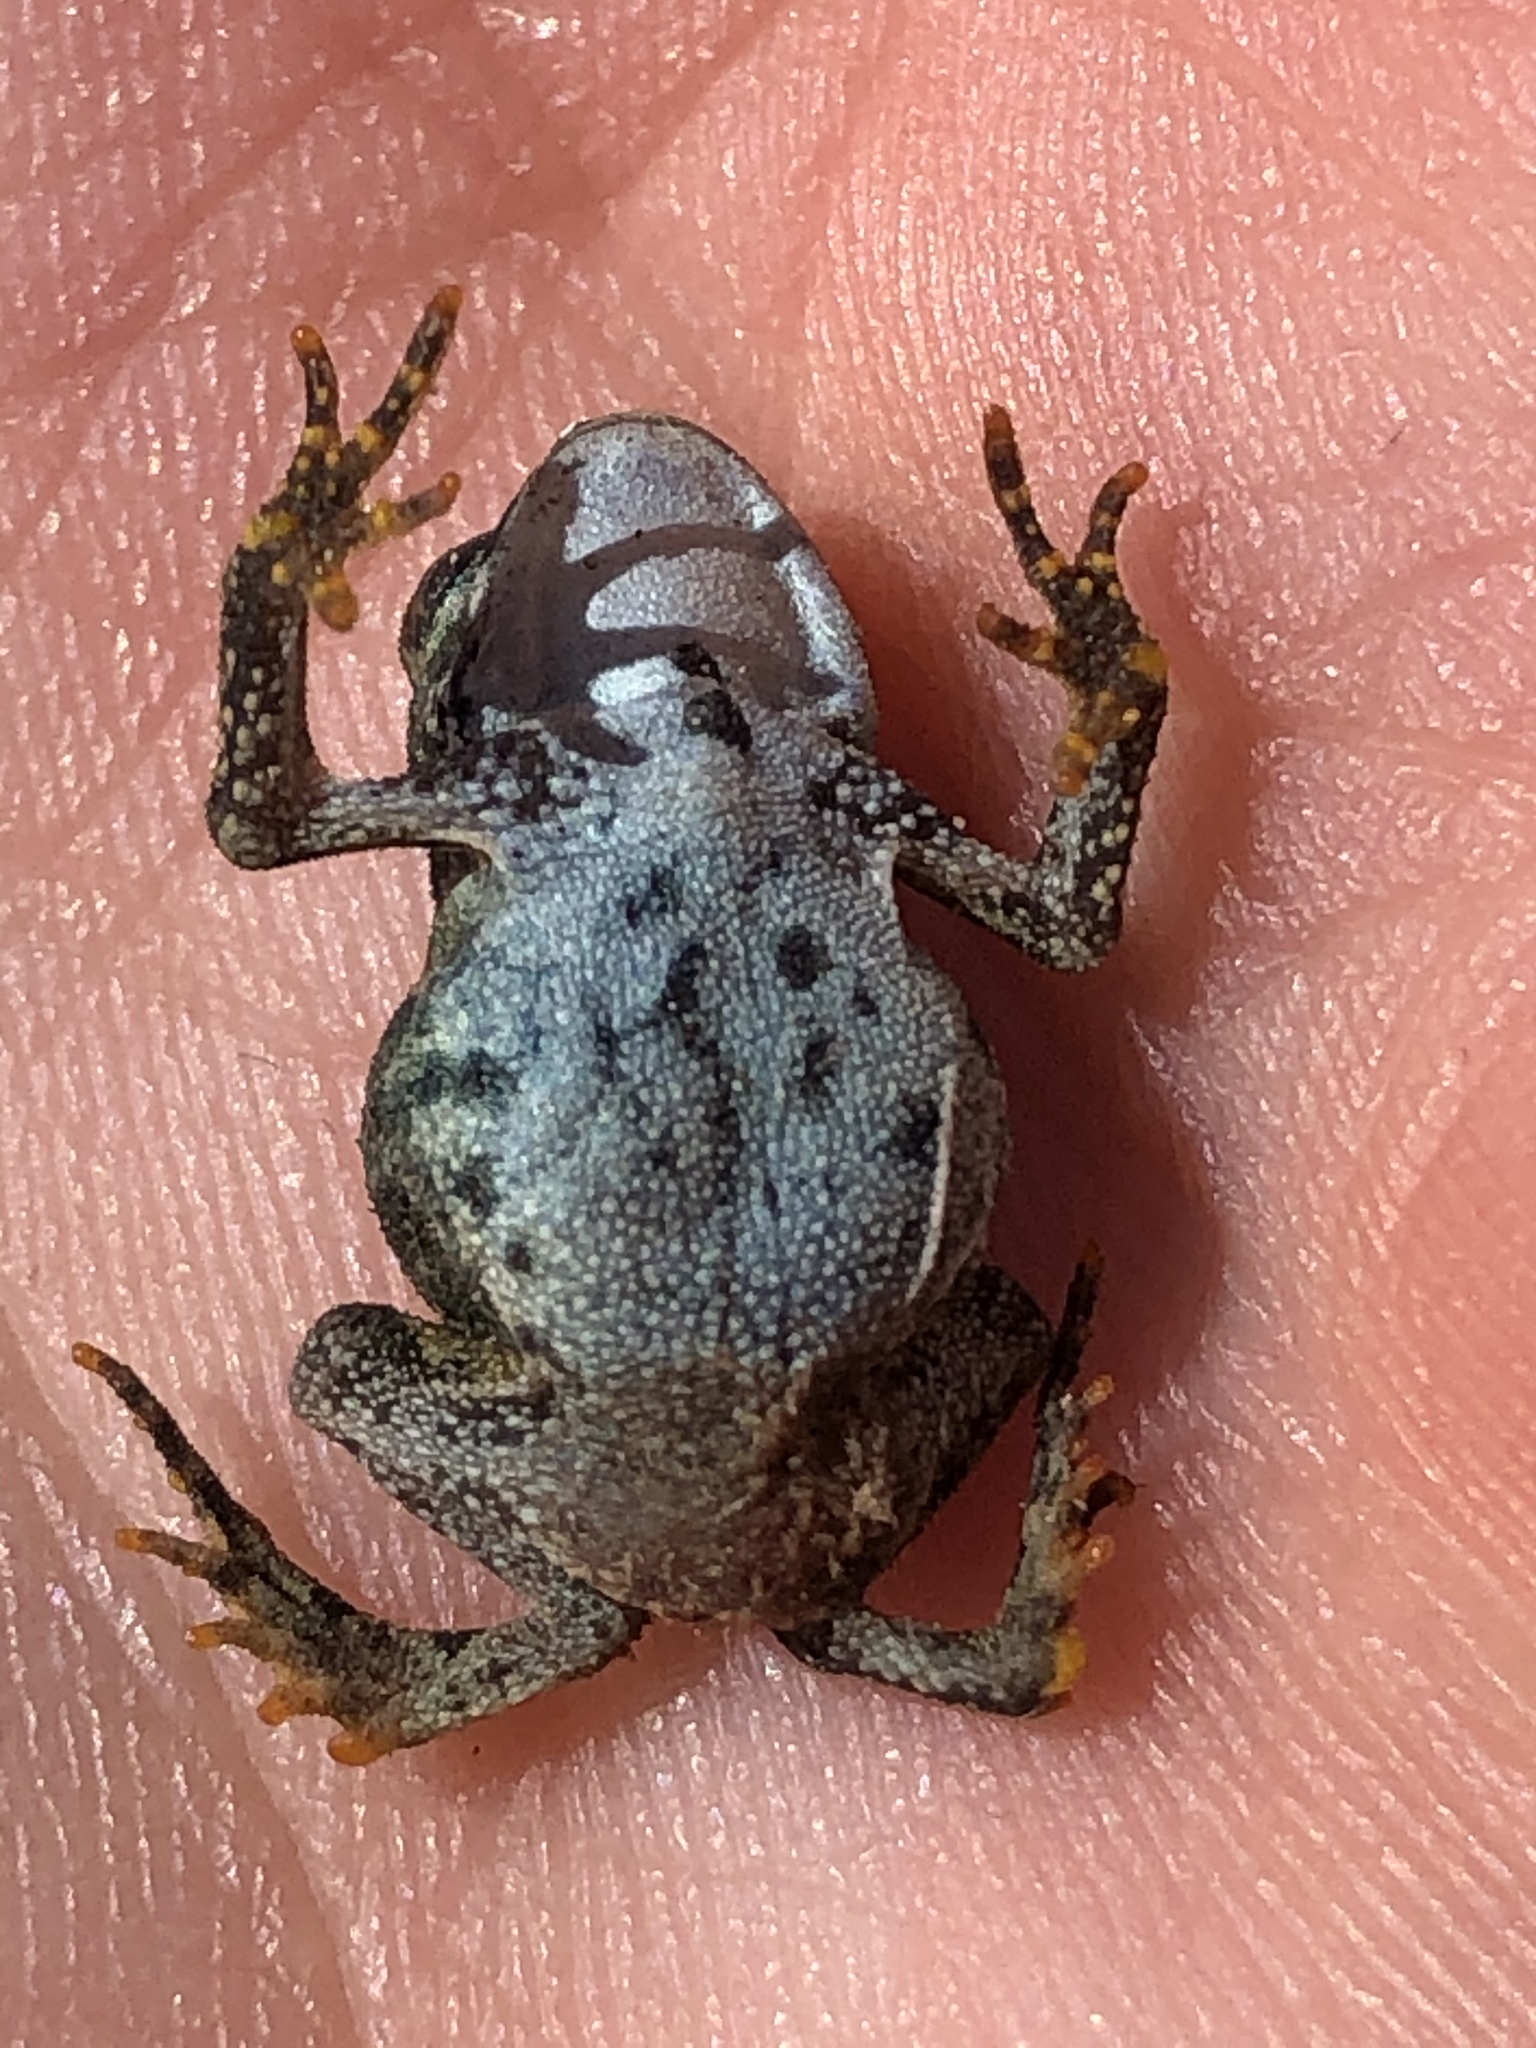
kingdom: Animalia
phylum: Chordata
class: Amphibia
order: Anura
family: Bufonidae
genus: Anaxyrus
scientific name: Anaxyrus americanus
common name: American toad
